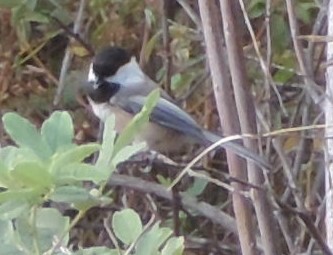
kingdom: Animalia
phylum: Chordata
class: Aves
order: Passeriformes
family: Paridae
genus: Poecile
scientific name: Poecile atricapillus
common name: Black-capped chickadee
